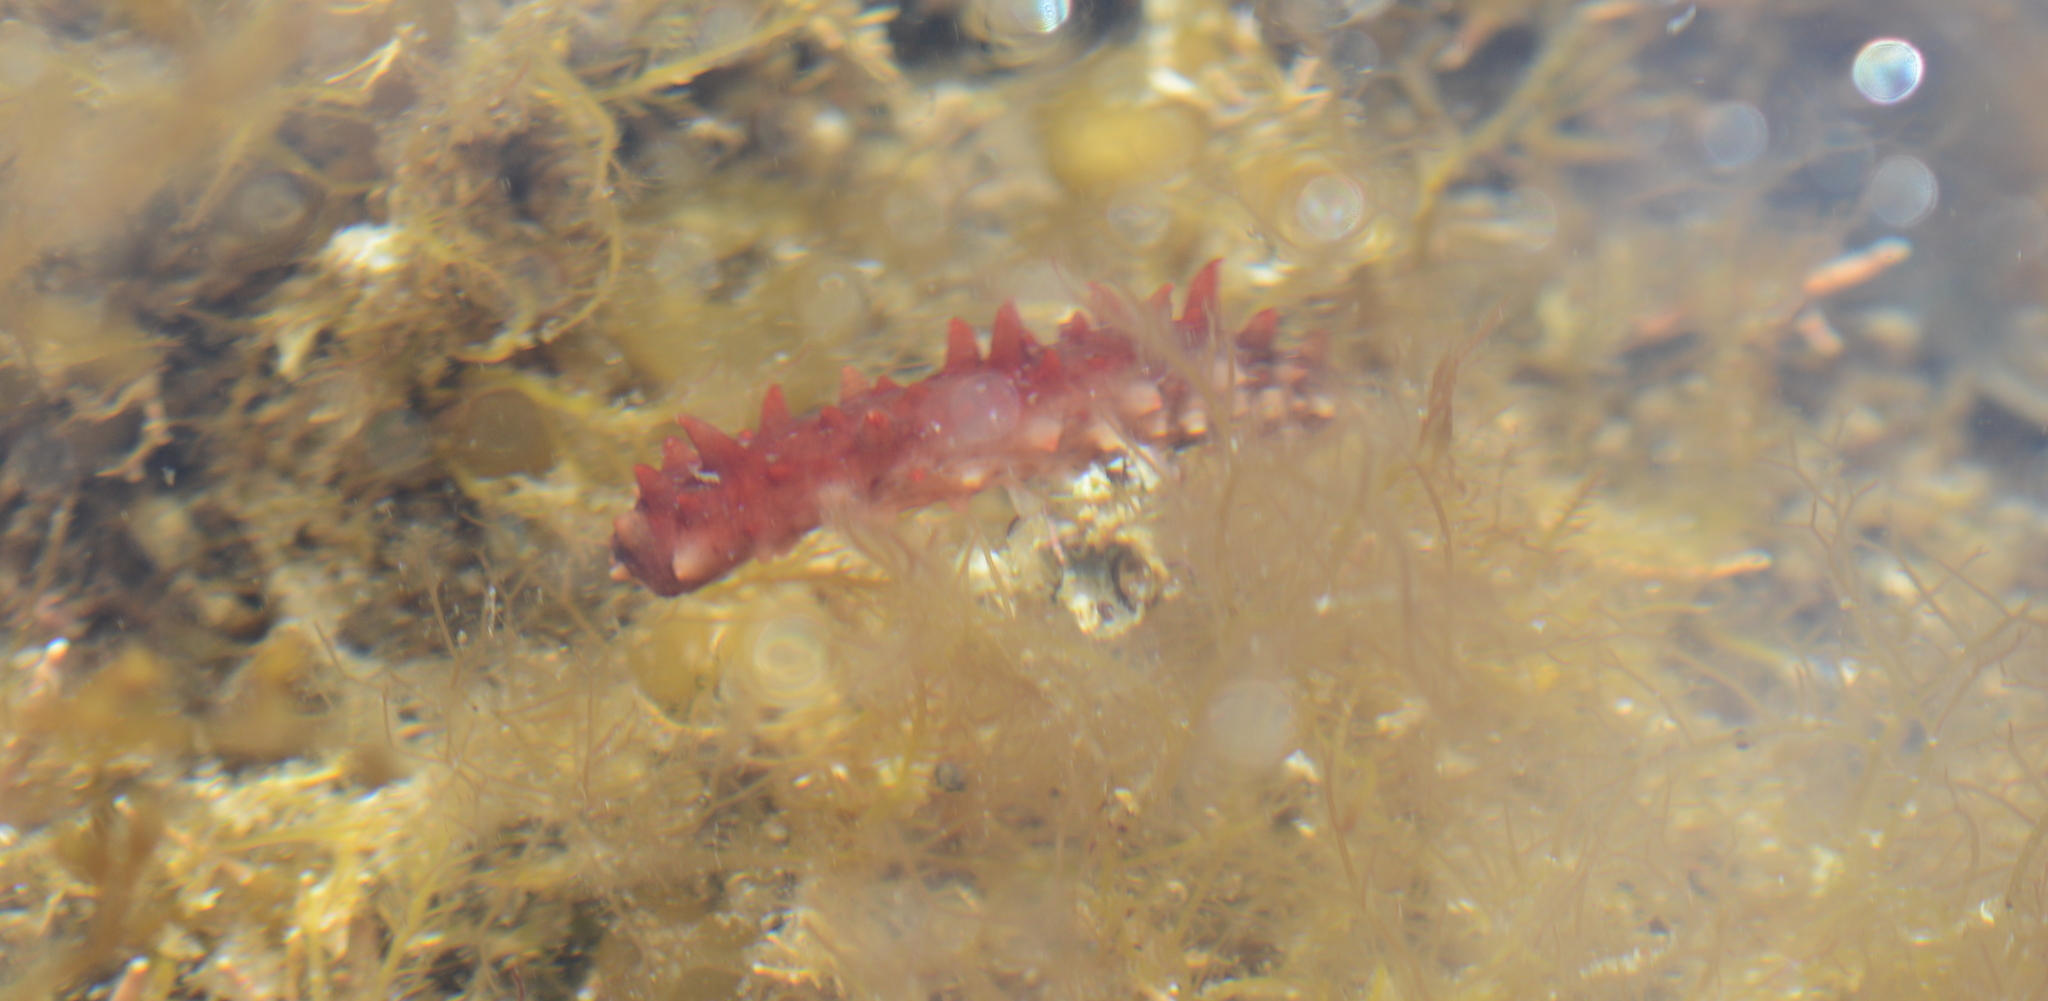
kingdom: Animalia
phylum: Echinodermata
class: Holothuroidea
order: Synallactida
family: Stichopodidae
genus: Apostichopus
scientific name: Apostichopus californicus
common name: California sea cucumber
